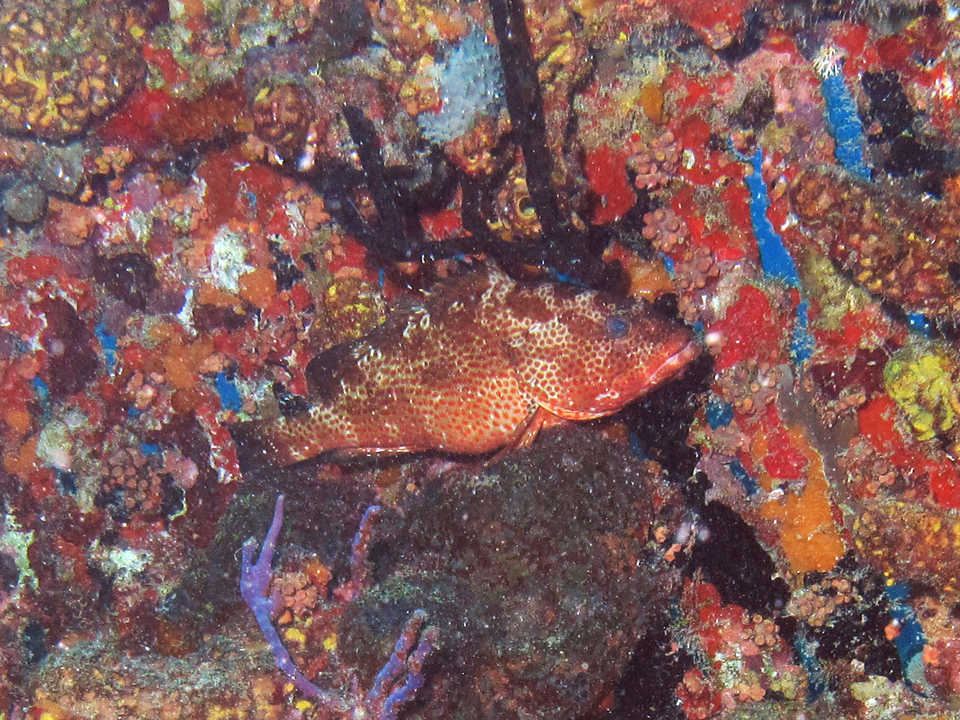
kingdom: Animalia
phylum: Chordata
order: Perciformes
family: Serranidae
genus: Epinephelus
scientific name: Epinephelus guttatus
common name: Red hind
